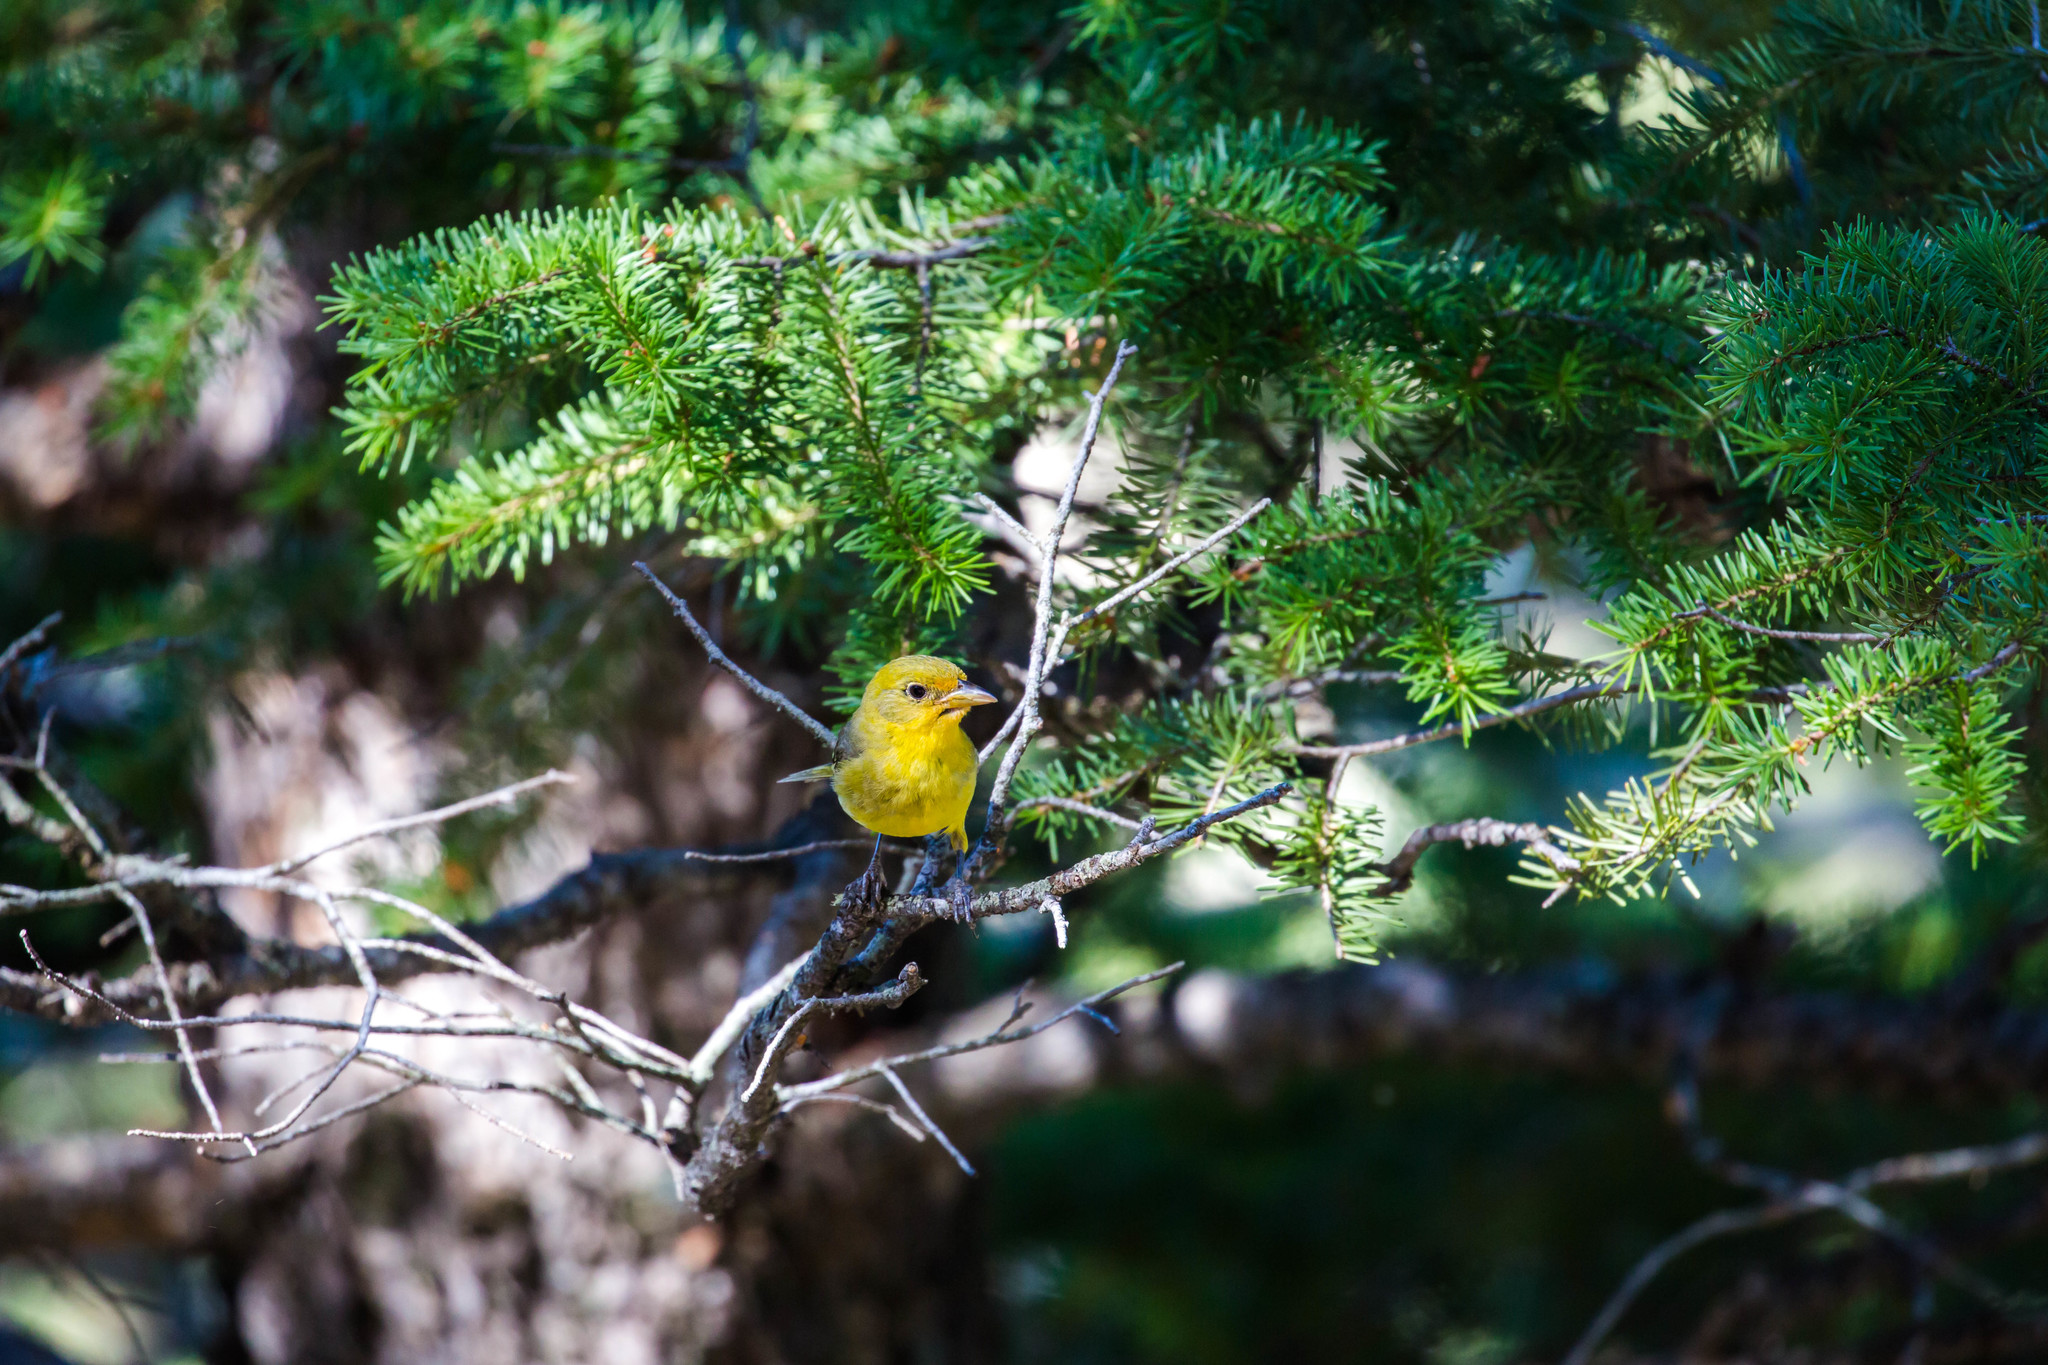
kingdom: Animalia
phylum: Chordata
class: Aves
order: Passeriformes
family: Cardinalidae
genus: Piranga
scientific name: Piranga ludoviciana
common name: Western tanager
